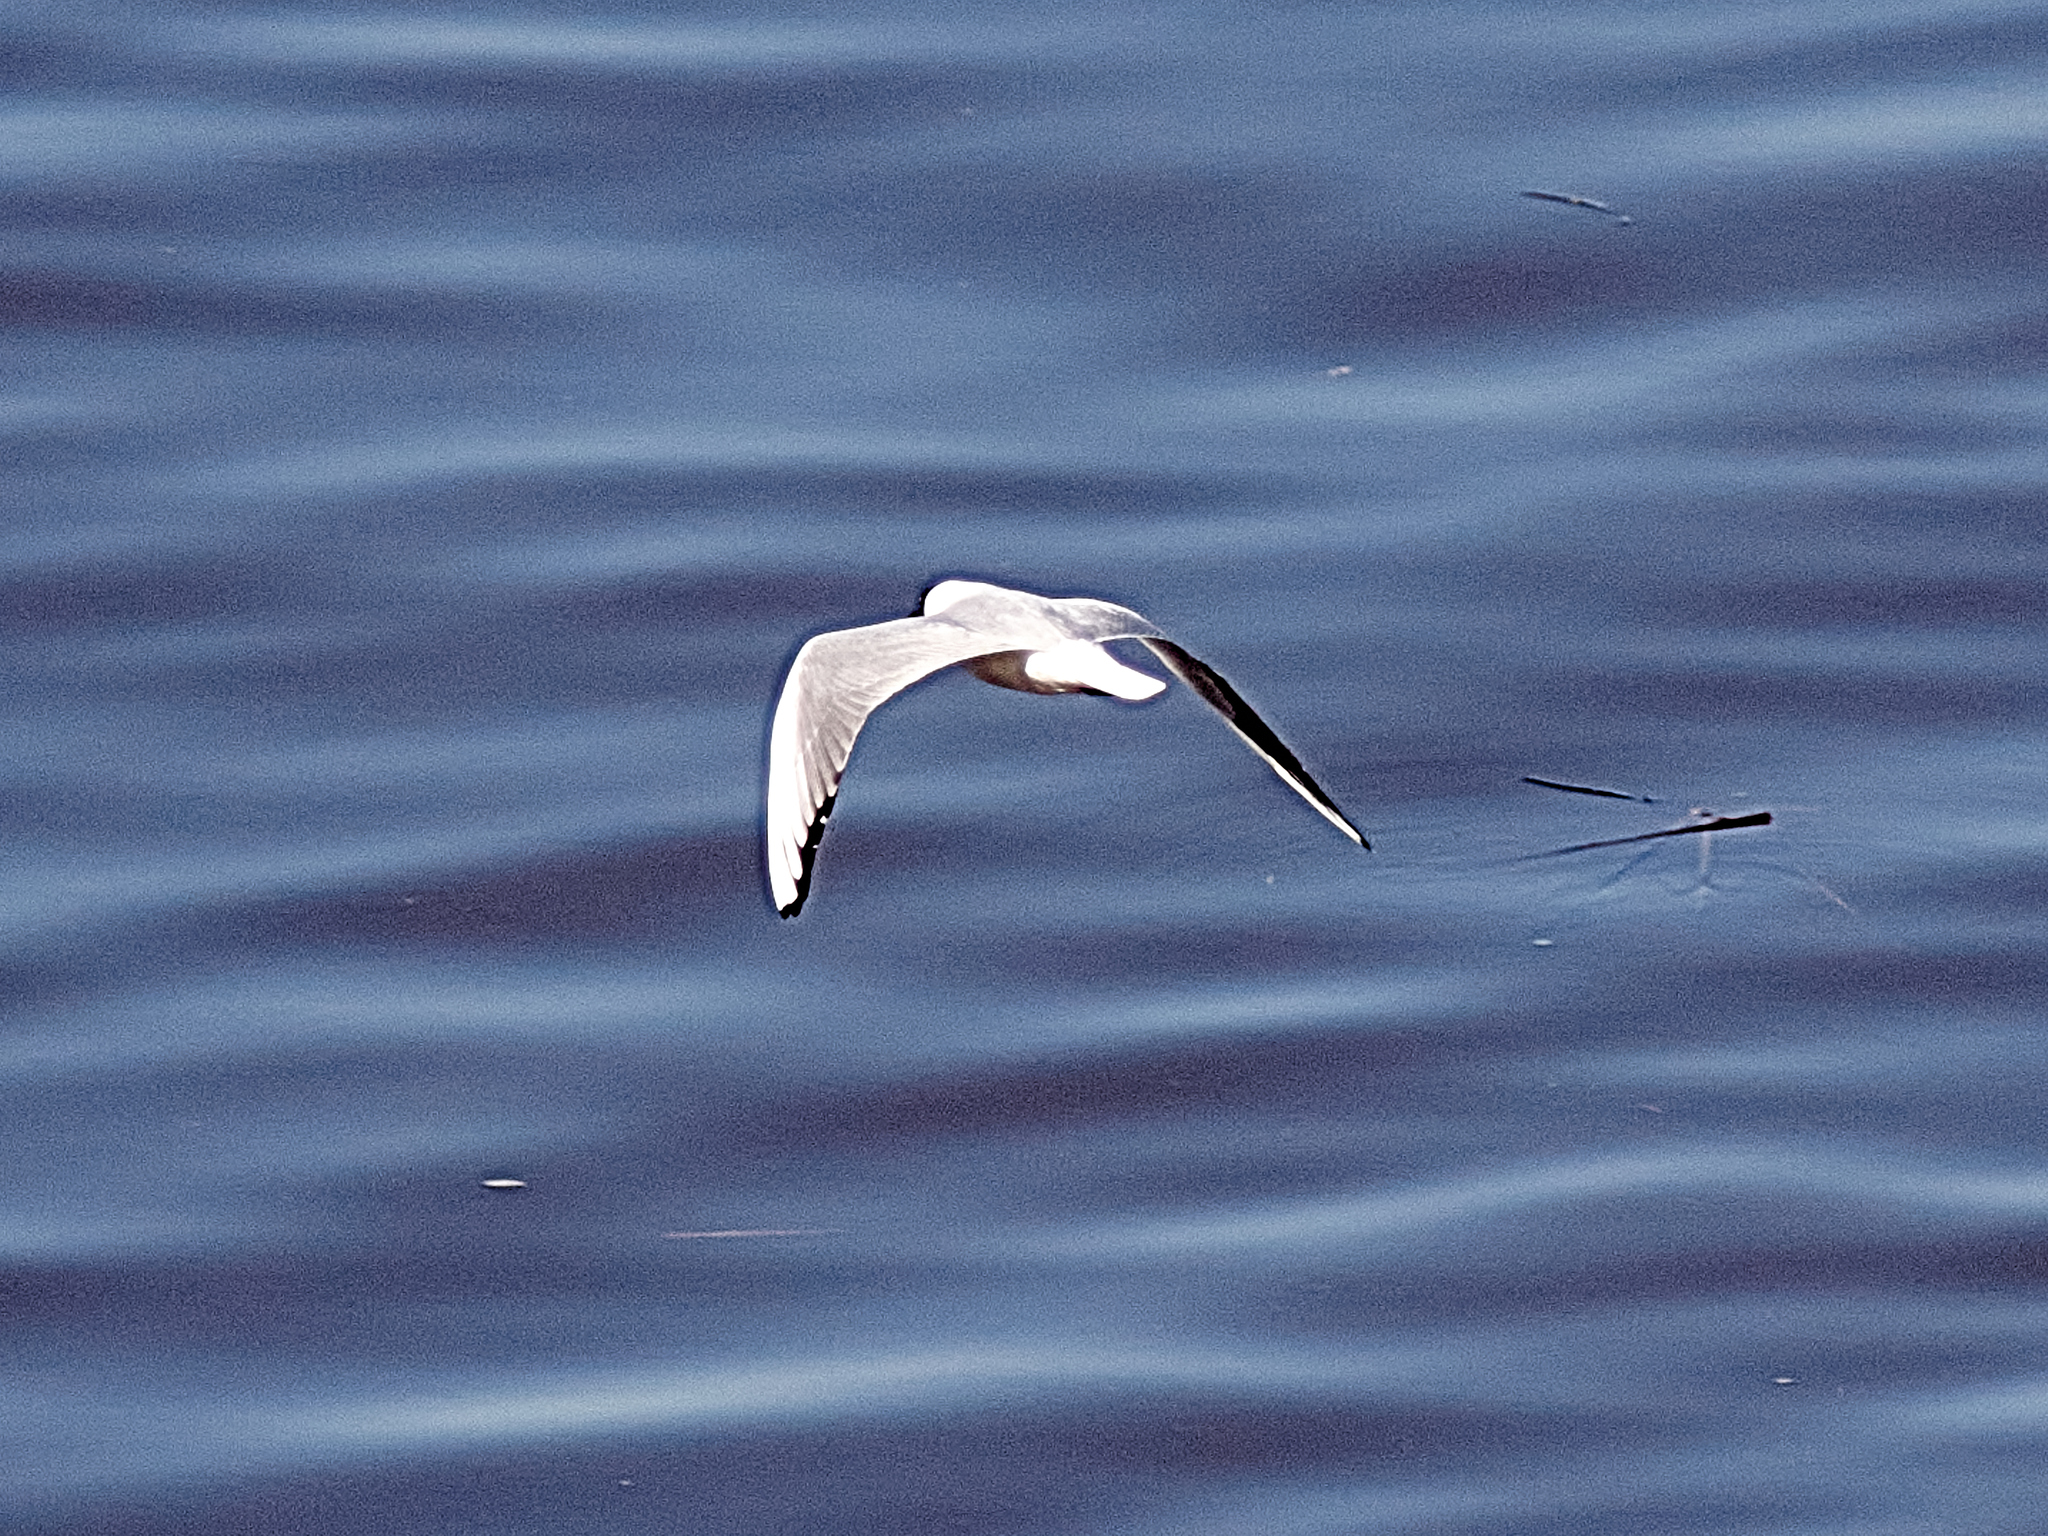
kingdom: Animalia
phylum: Chordata
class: Aves
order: Charadriiformes
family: Laridae
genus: Chroicocephalus
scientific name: Chroicocephalus ridibundus
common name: Black-headed gull
